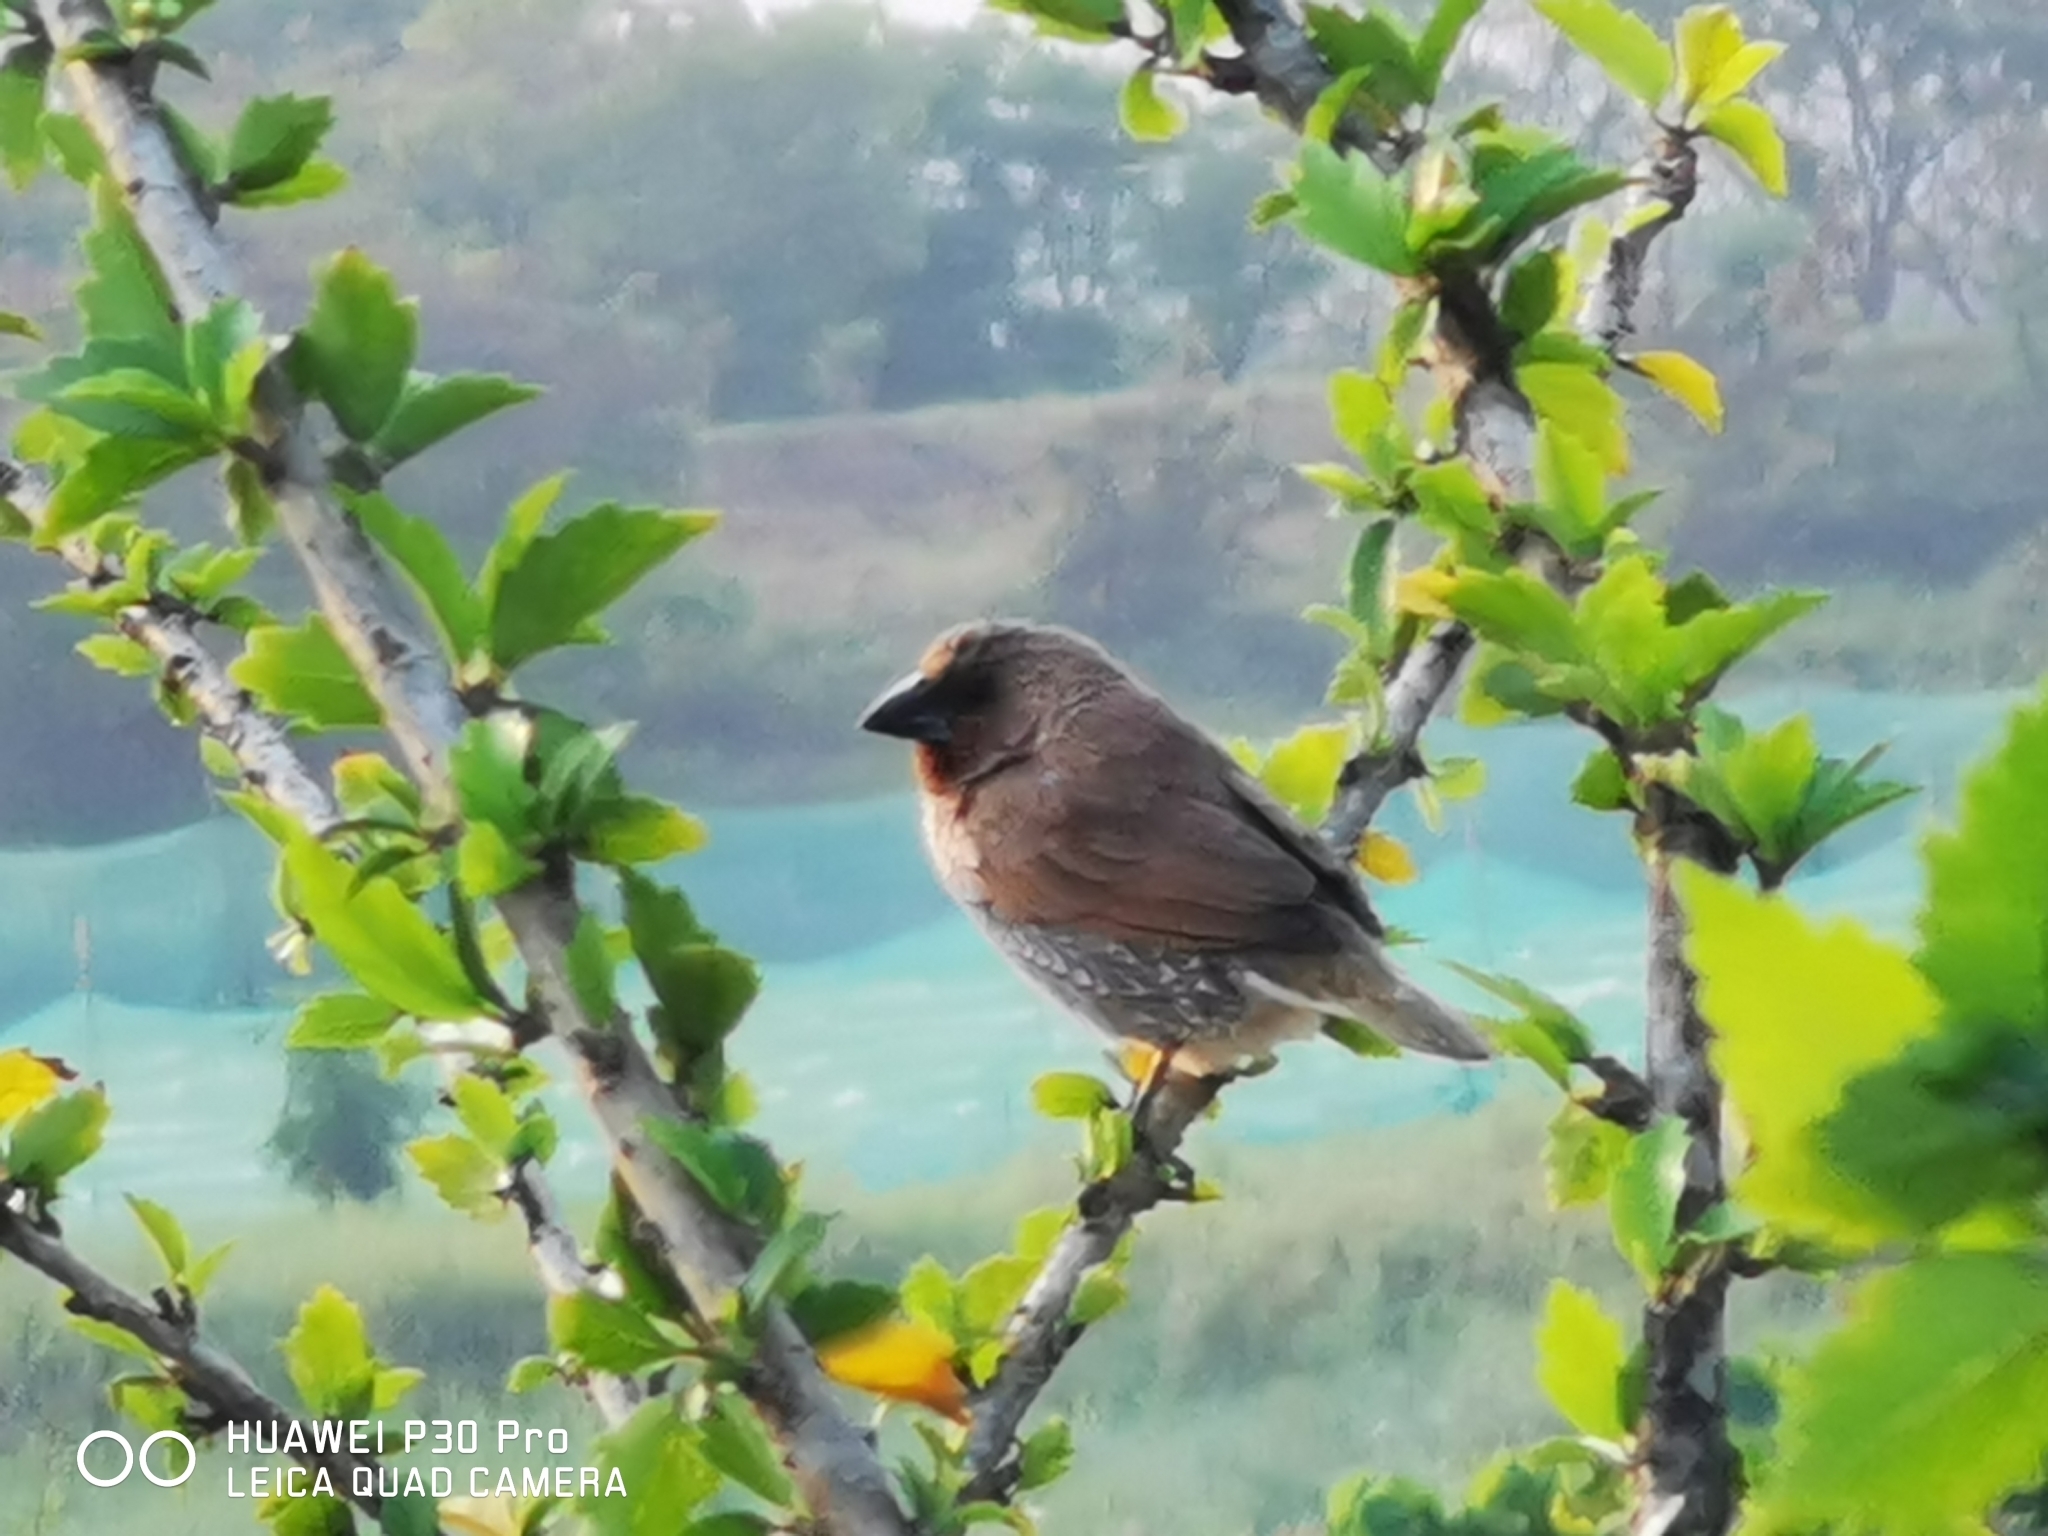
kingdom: Animalia
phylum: Chordata
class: Aves
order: Passeriformes
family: Estrildidae
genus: Lonchura
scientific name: Lonchura punctulata
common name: Scaly-breasted munia
